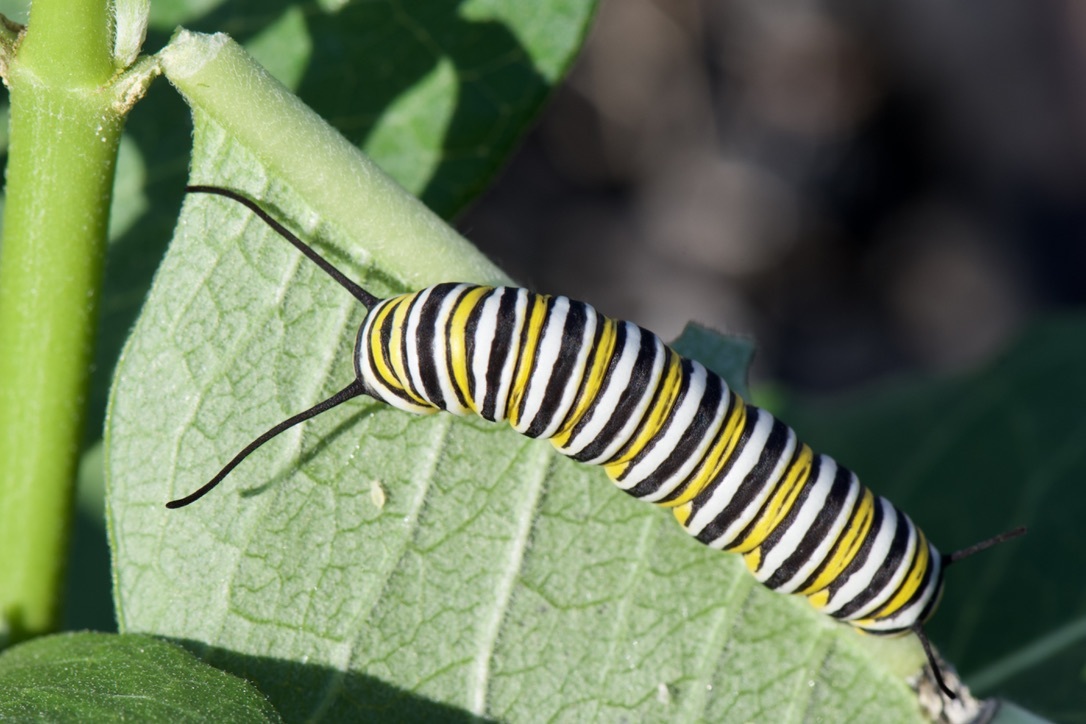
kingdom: Animalia
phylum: Arthropoda
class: Insecta
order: Lepidoptera
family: Nymphalidae
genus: Danaus
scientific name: Danaus plexippus
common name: Monarch
